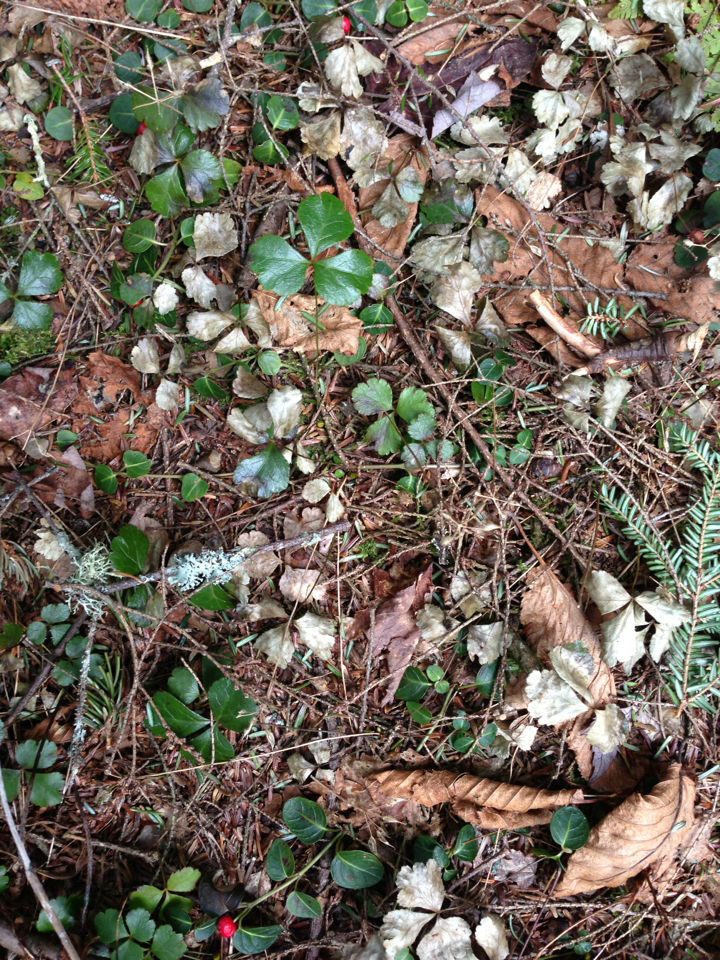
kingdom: Plantae
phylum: Tracheophyta
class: Magnoliopsida
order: Ranunculales
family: Ranunculaceae
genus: Coptis
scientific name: Coptis trifolia
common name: Canker-root
